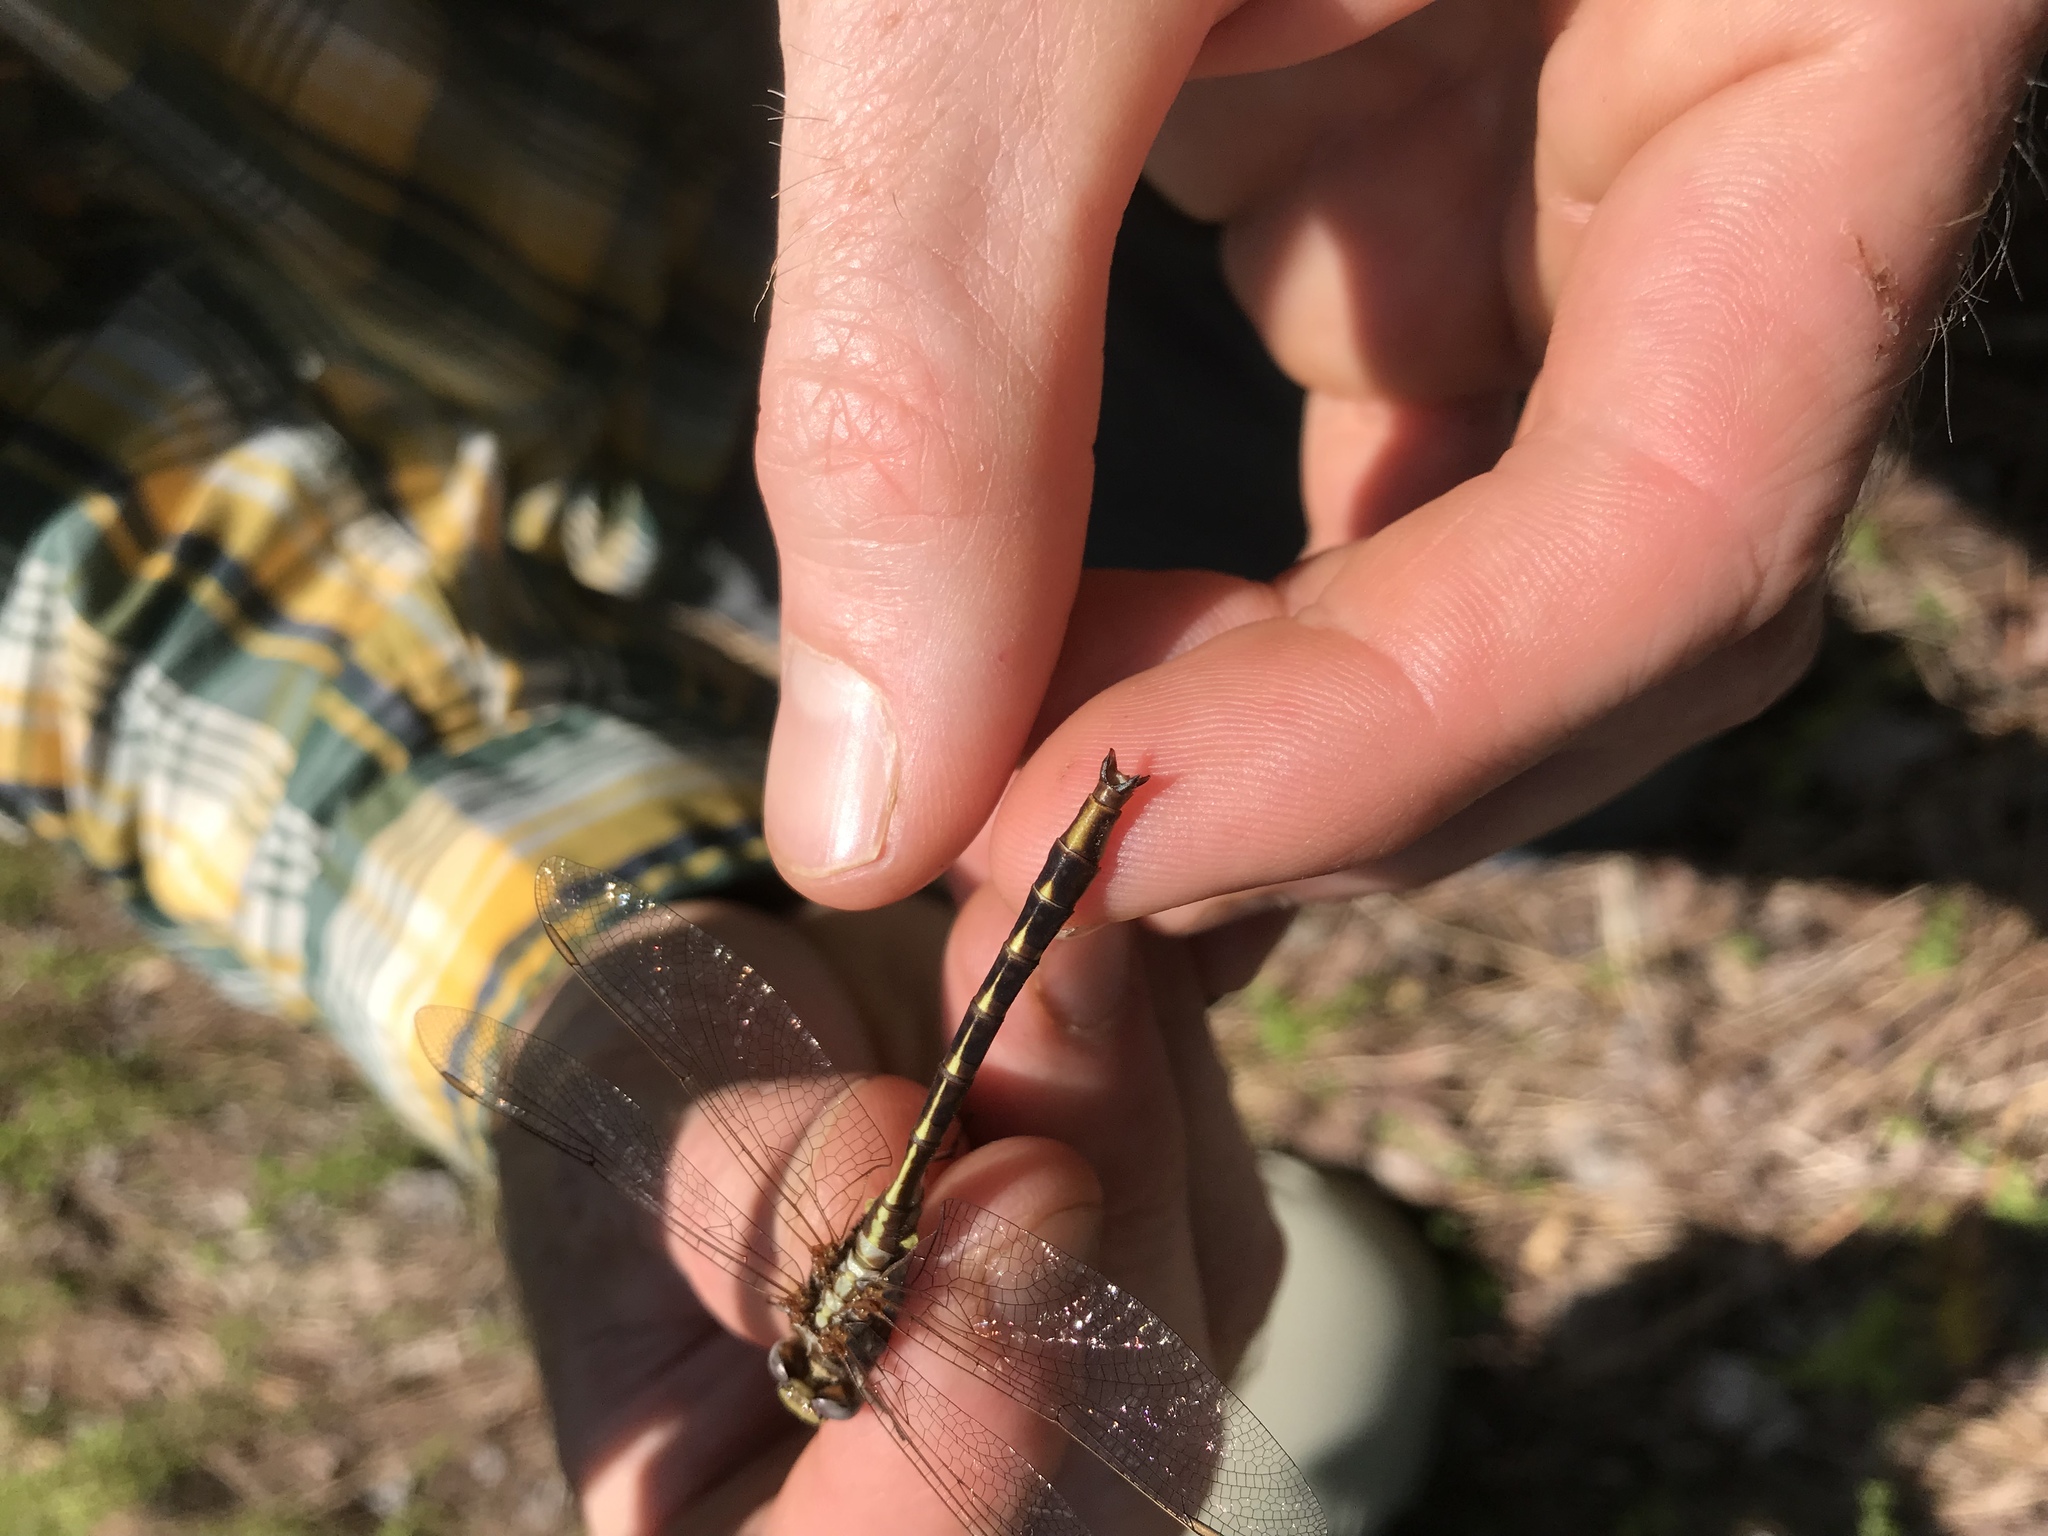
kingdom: Animalia
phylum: Arthropoda
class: Insecta
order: Odonata
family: Gomphidae
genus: Phanogomphus
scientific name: Phanogomphus lividus
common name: Ashy clubtail
